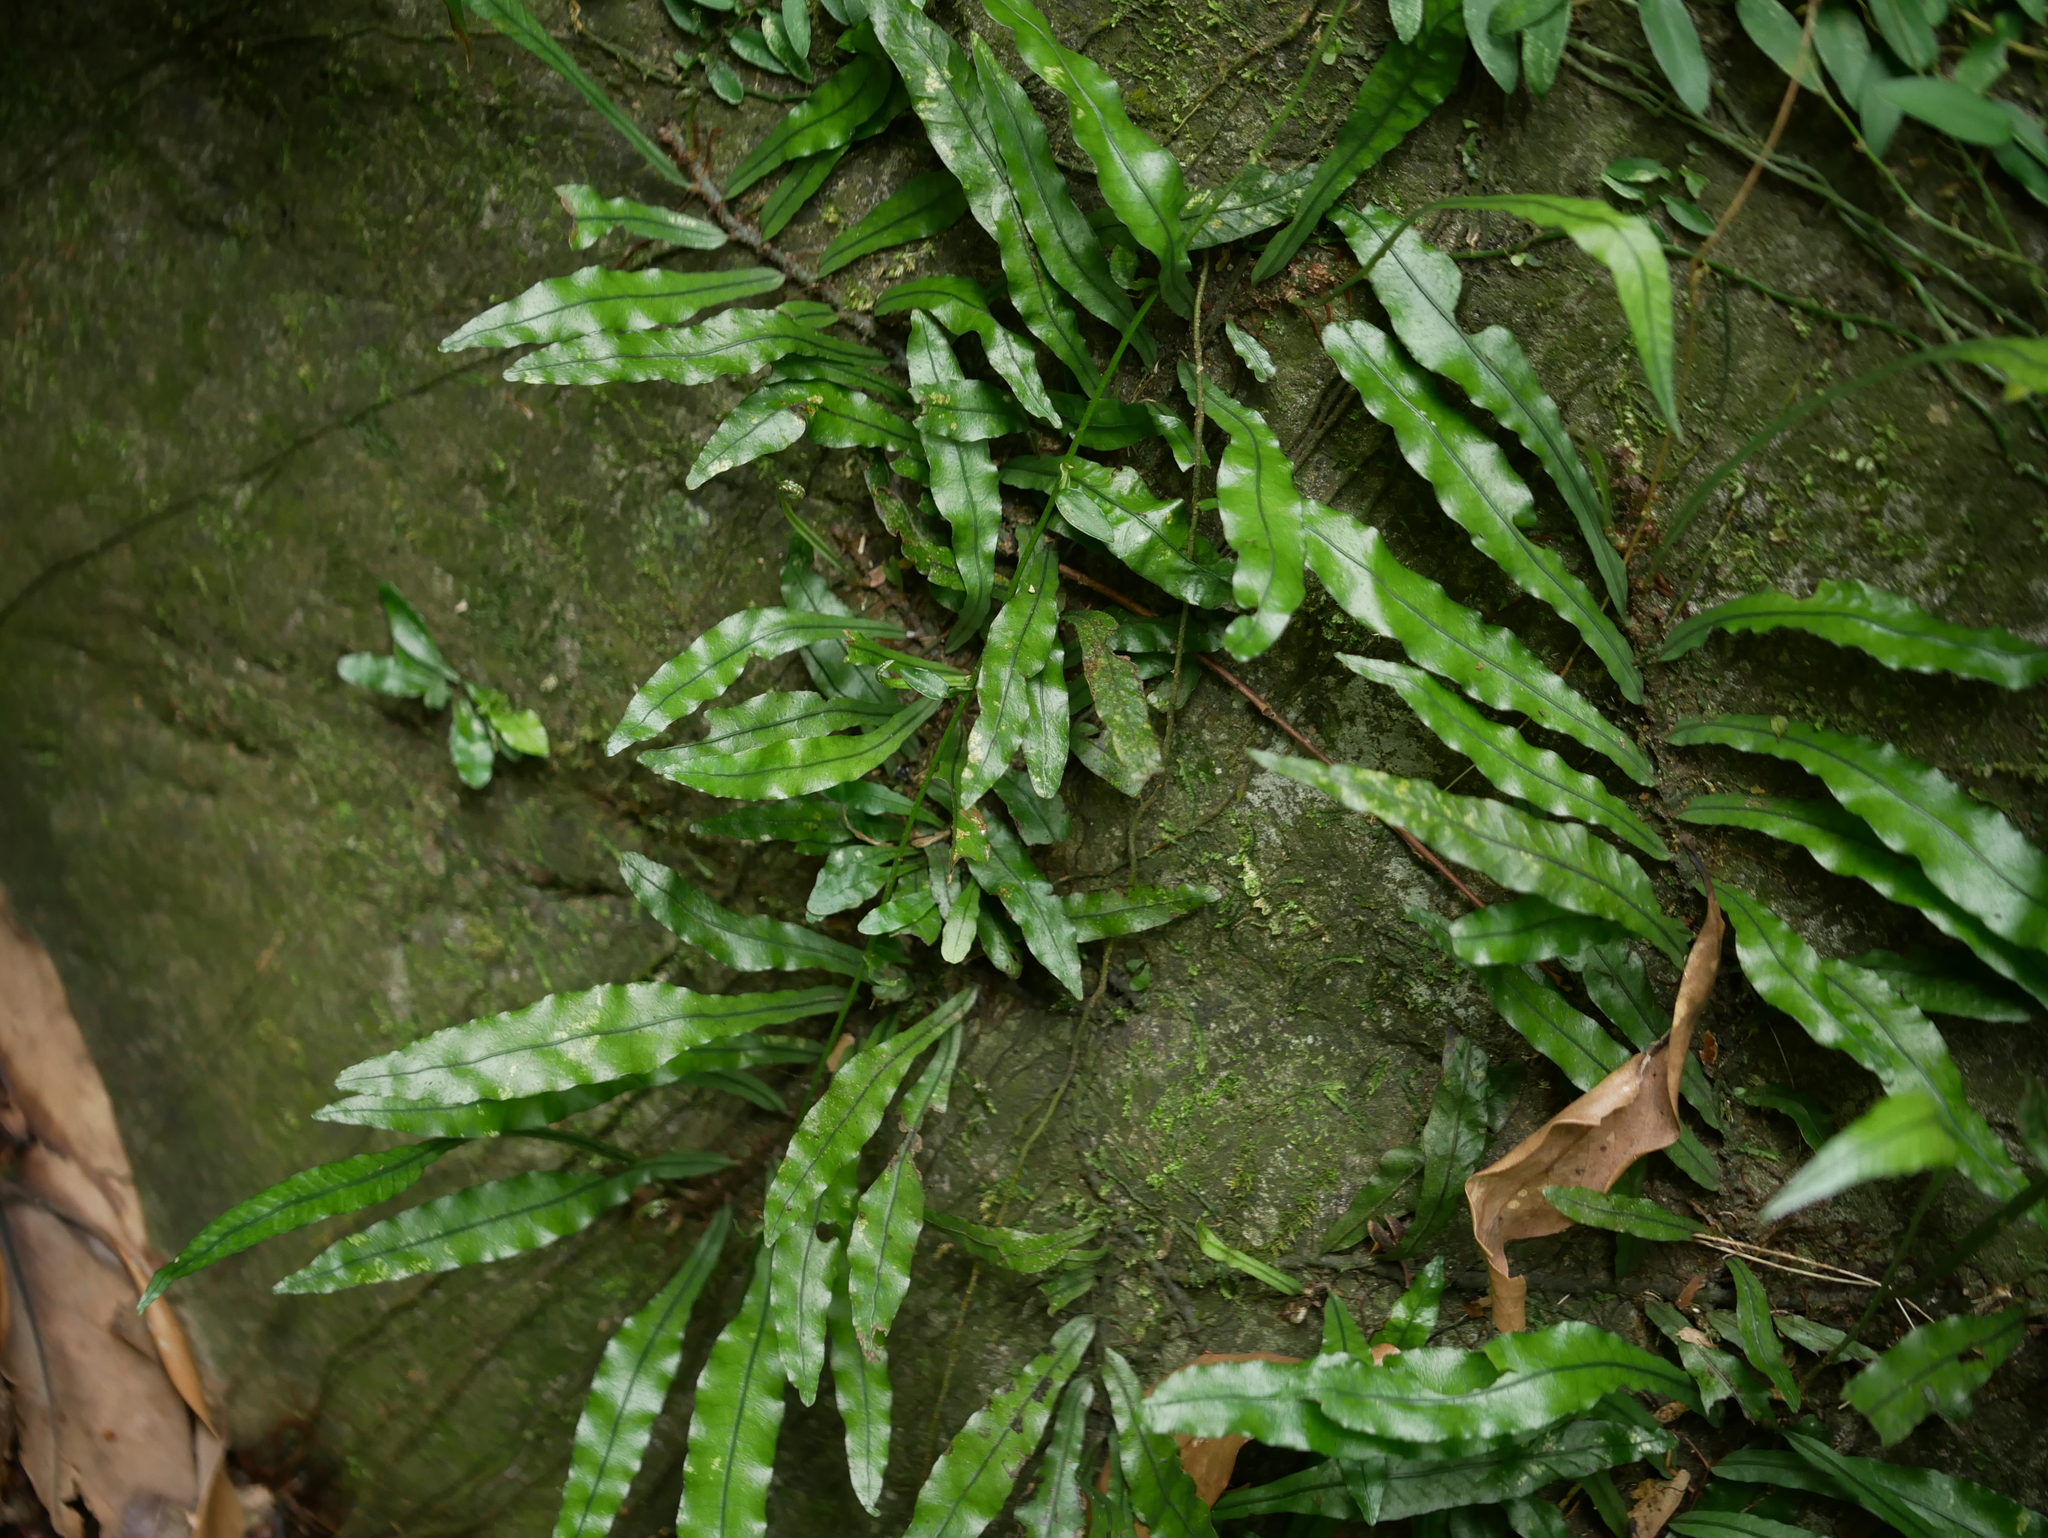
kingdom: Plantae
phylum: Tracheophyta
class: Polypodiopsida
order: Polypodiales
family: Polypodiaceae
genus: Leptochilus
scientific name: Leptochilus wrightii
